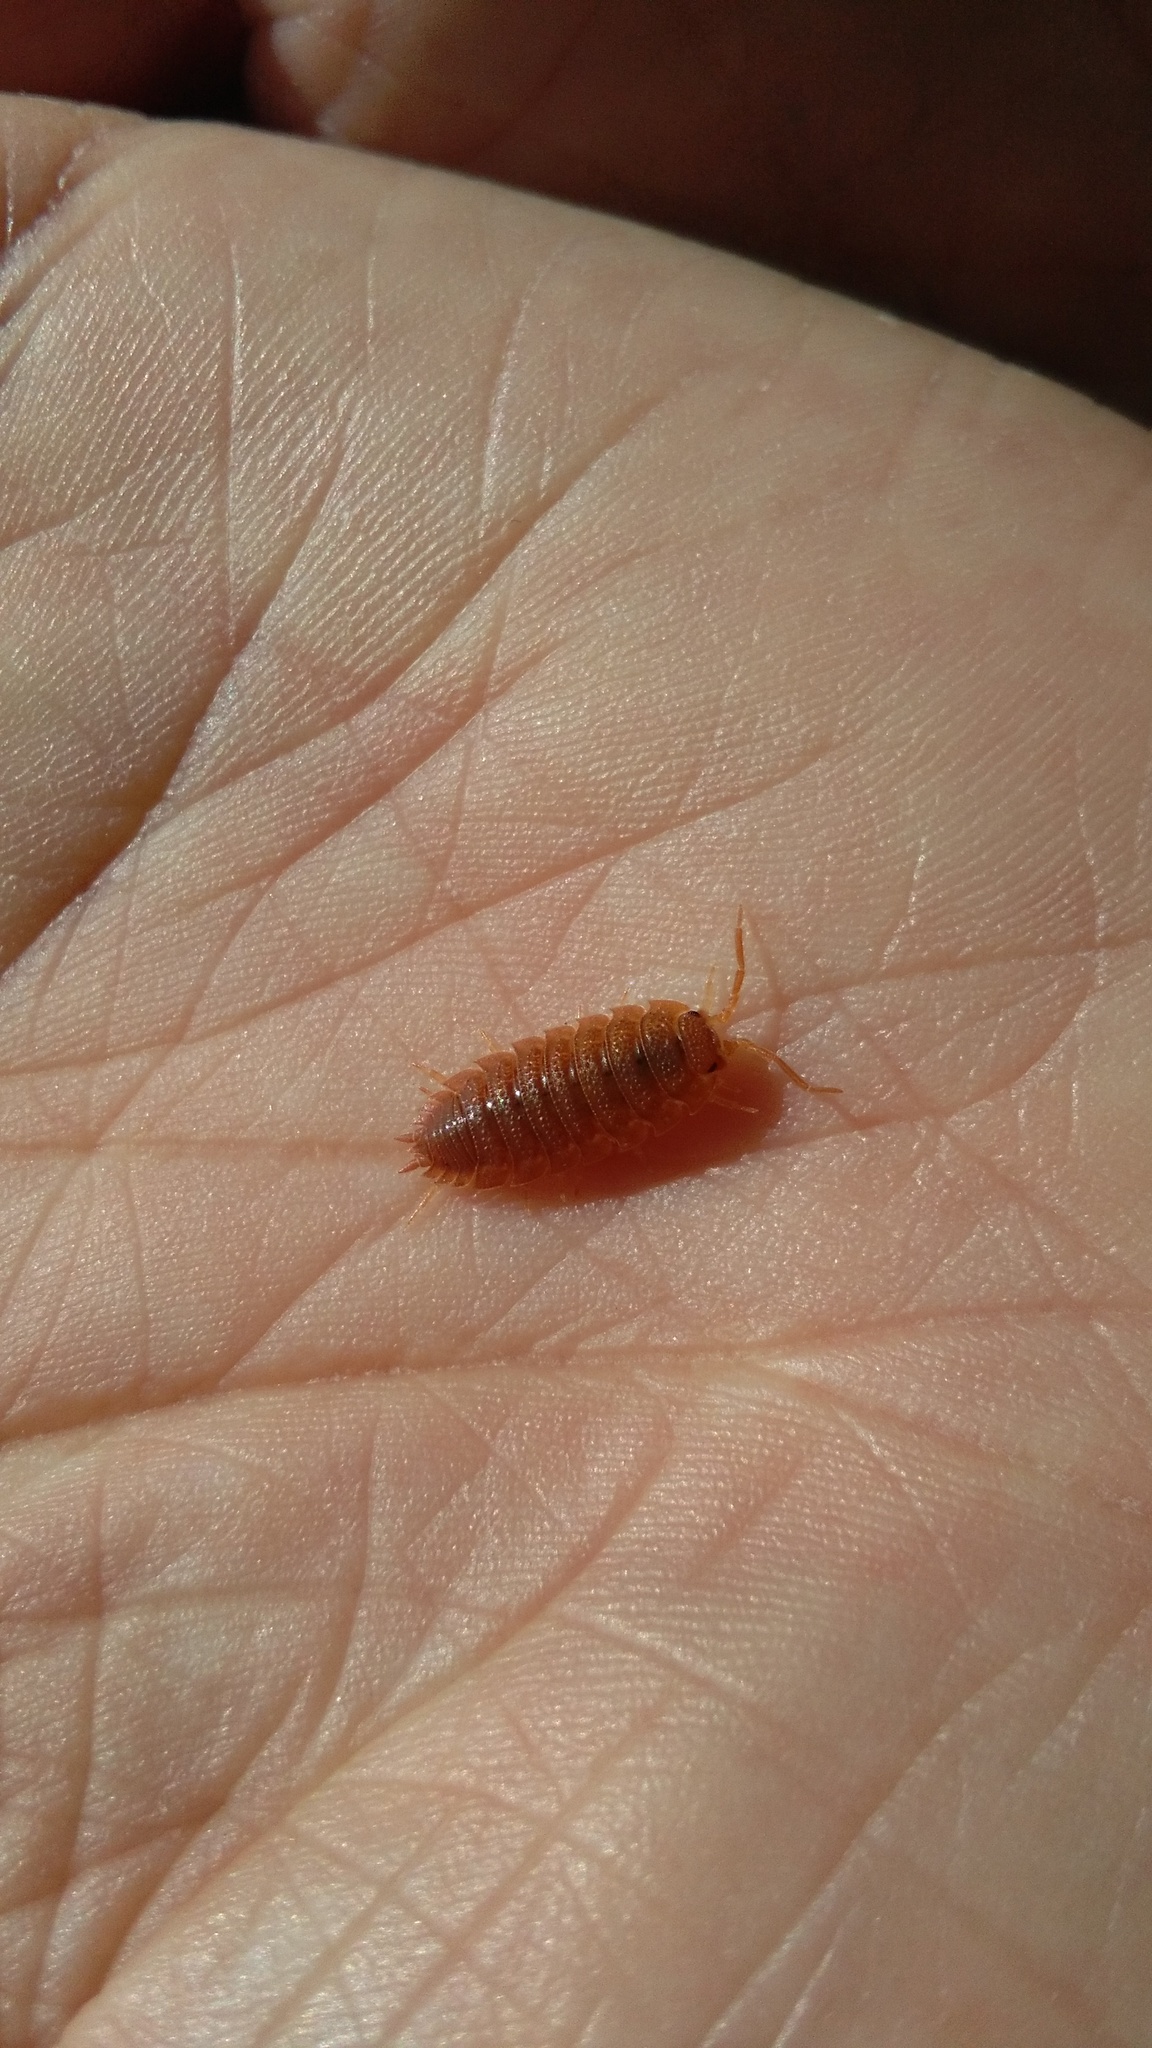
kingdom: Animalia
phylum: Arthropoda
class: Malacostraca
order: Isopoda
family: Porcellionidae
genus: Porcellio
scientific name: Porcellio scaber
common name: Common rough woodlouse
